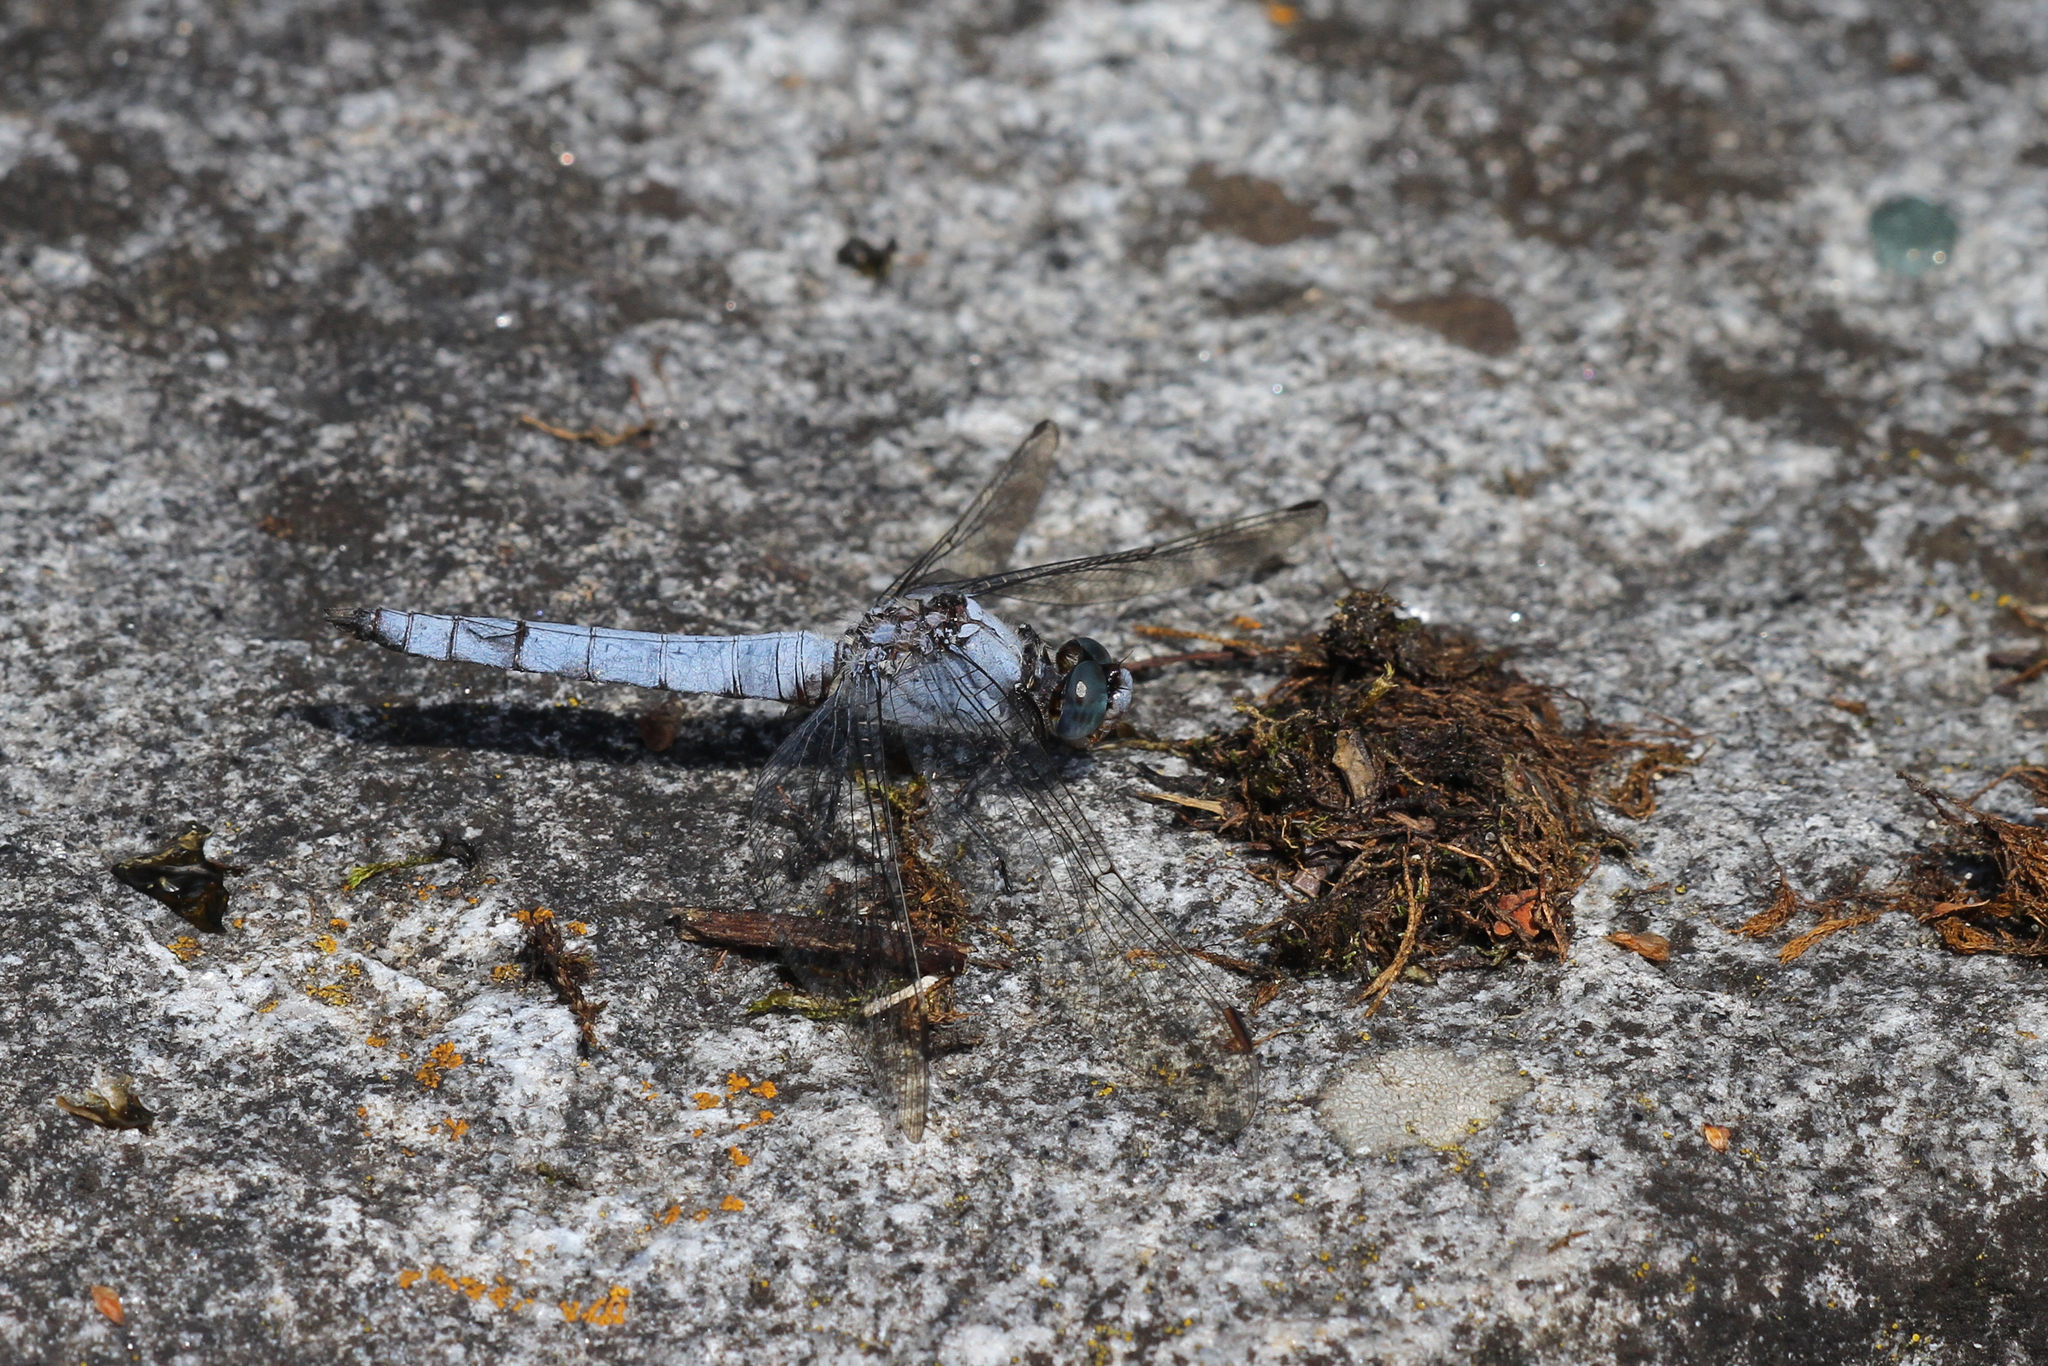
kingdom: Animalia
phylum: Arthropoda
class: Insecta
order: Odonata
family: Libellulidae
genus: Orthetrum
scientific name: Orthetrum brunneum
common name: Southern skimmer
